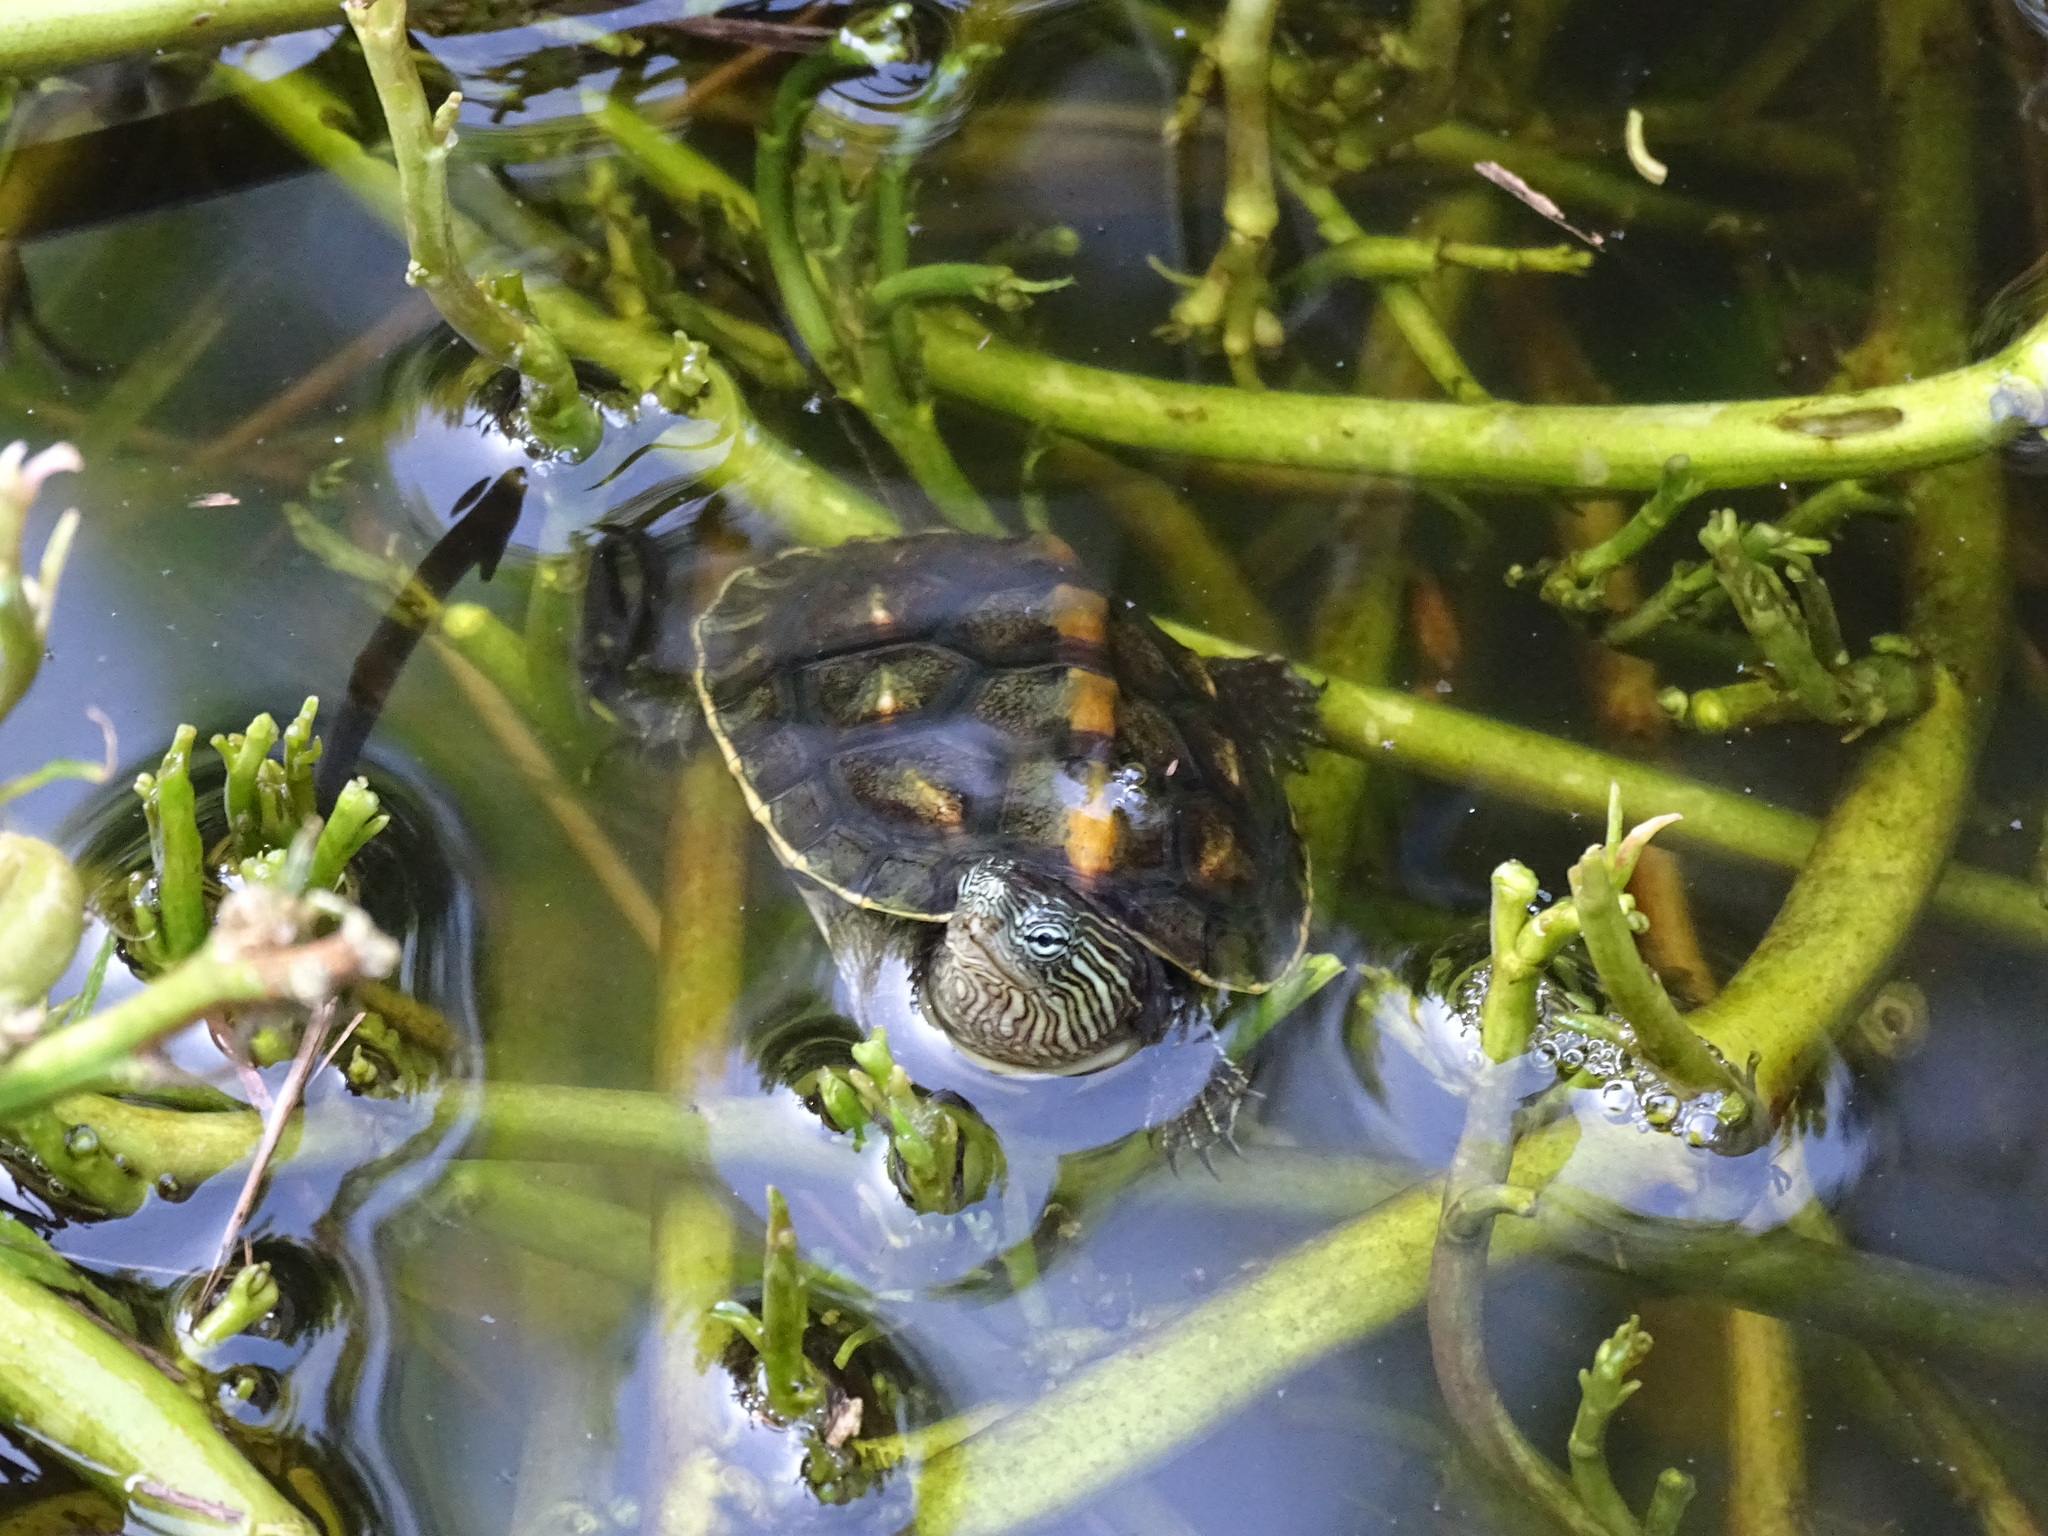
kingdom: Animalia
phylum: Chordata
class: Testudines
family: Geoemydidae
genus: Mauremys
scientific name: Mauremys sinensis
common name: Chinese stripe-necked turtle
